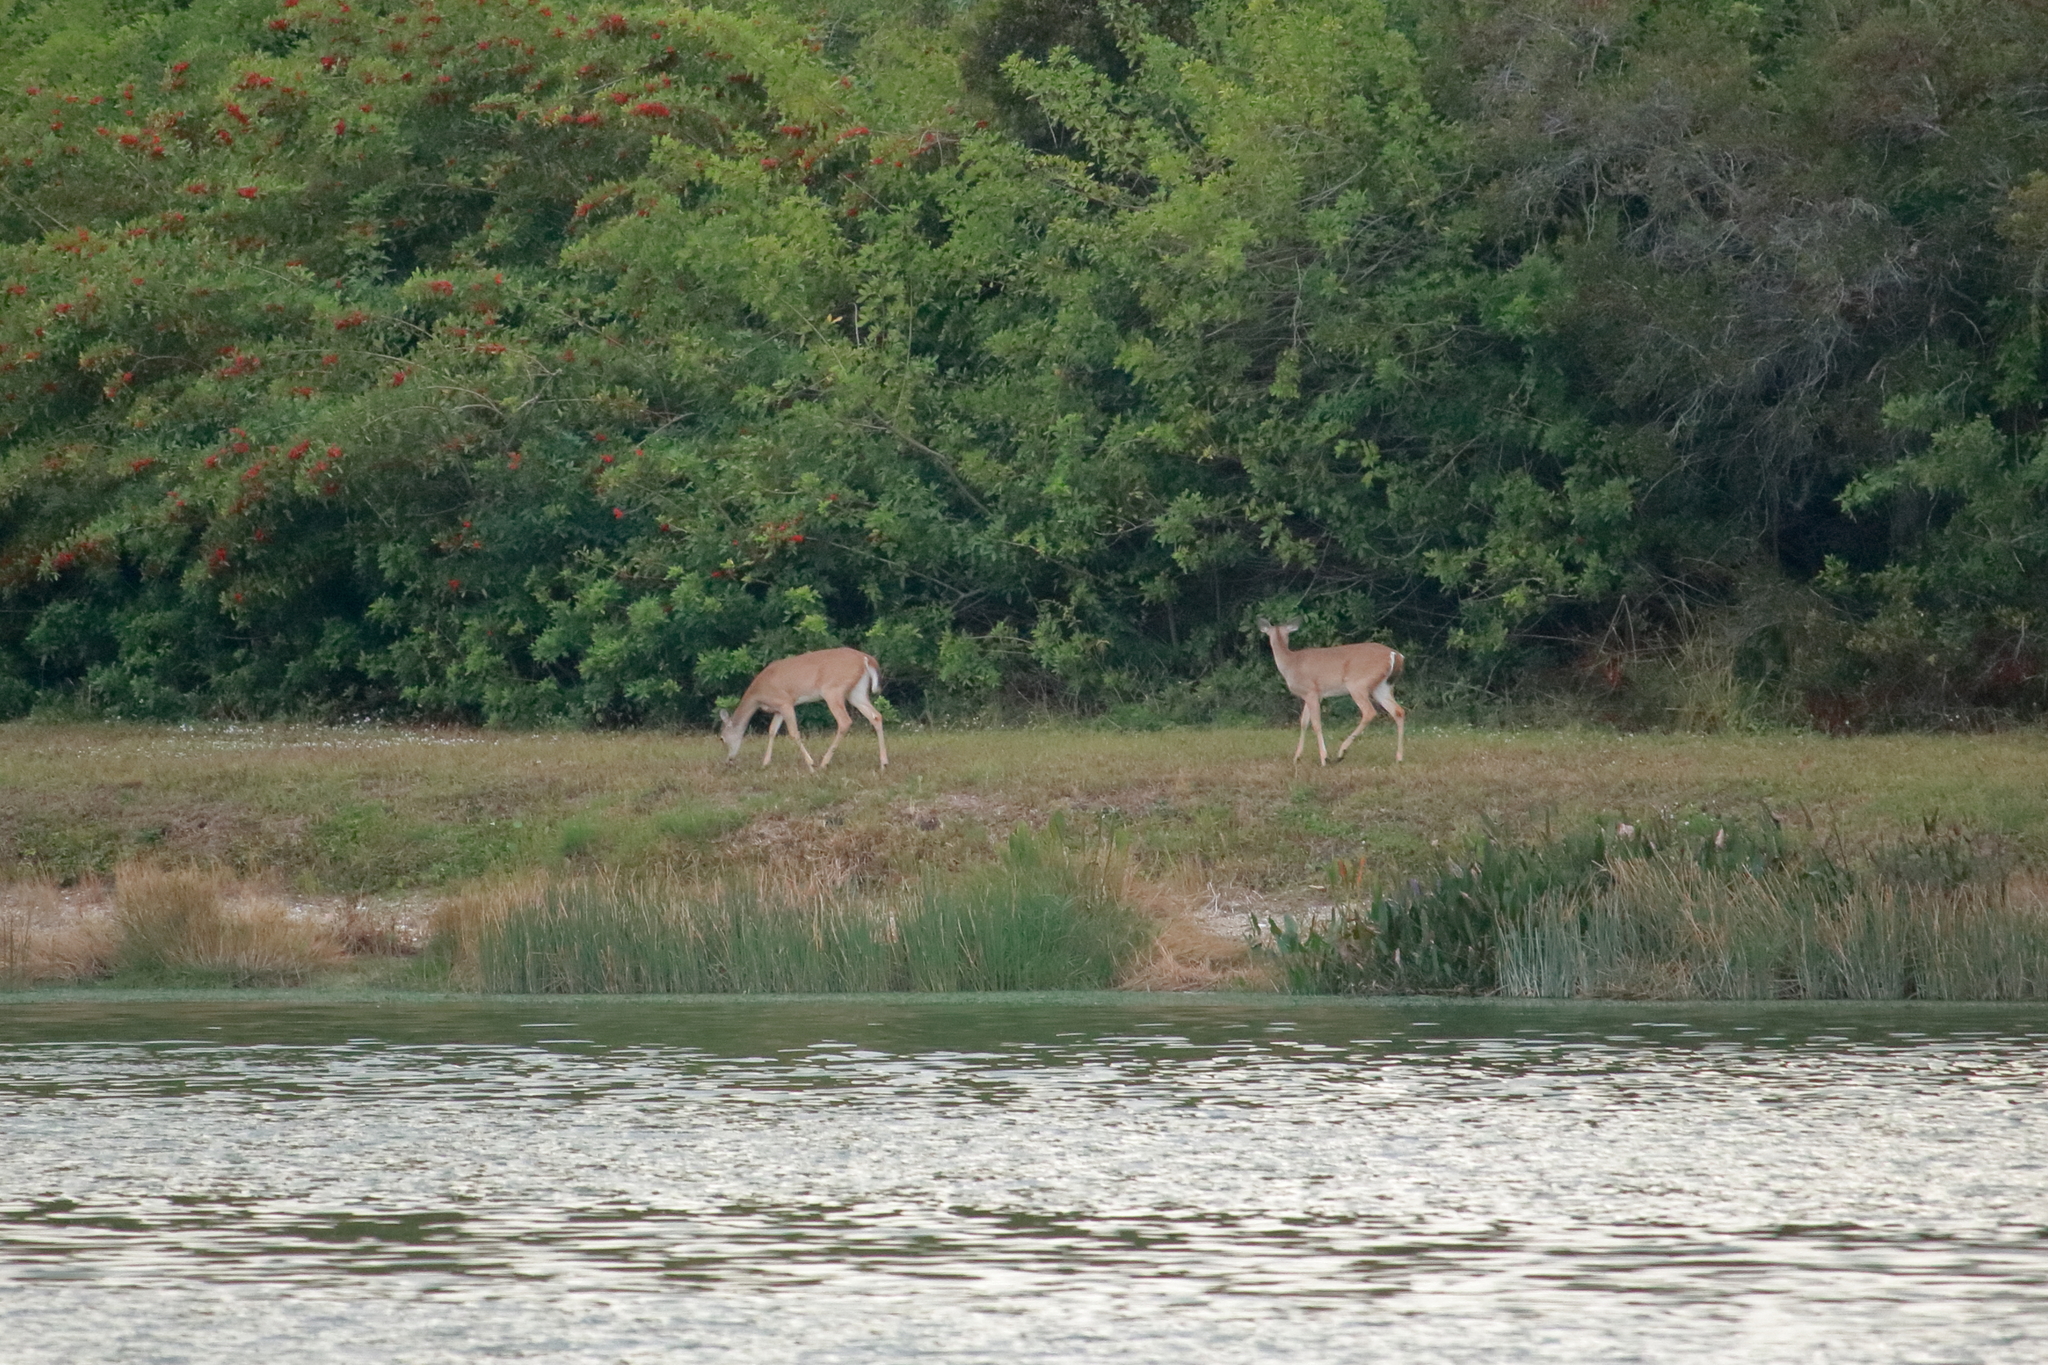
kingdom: Animalia
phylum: Chordata
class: Mammalia
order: Artiodactyla
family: Cervidae
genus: Odocoileus
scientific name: Odocoileus virginianus
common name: White-tailed deer
